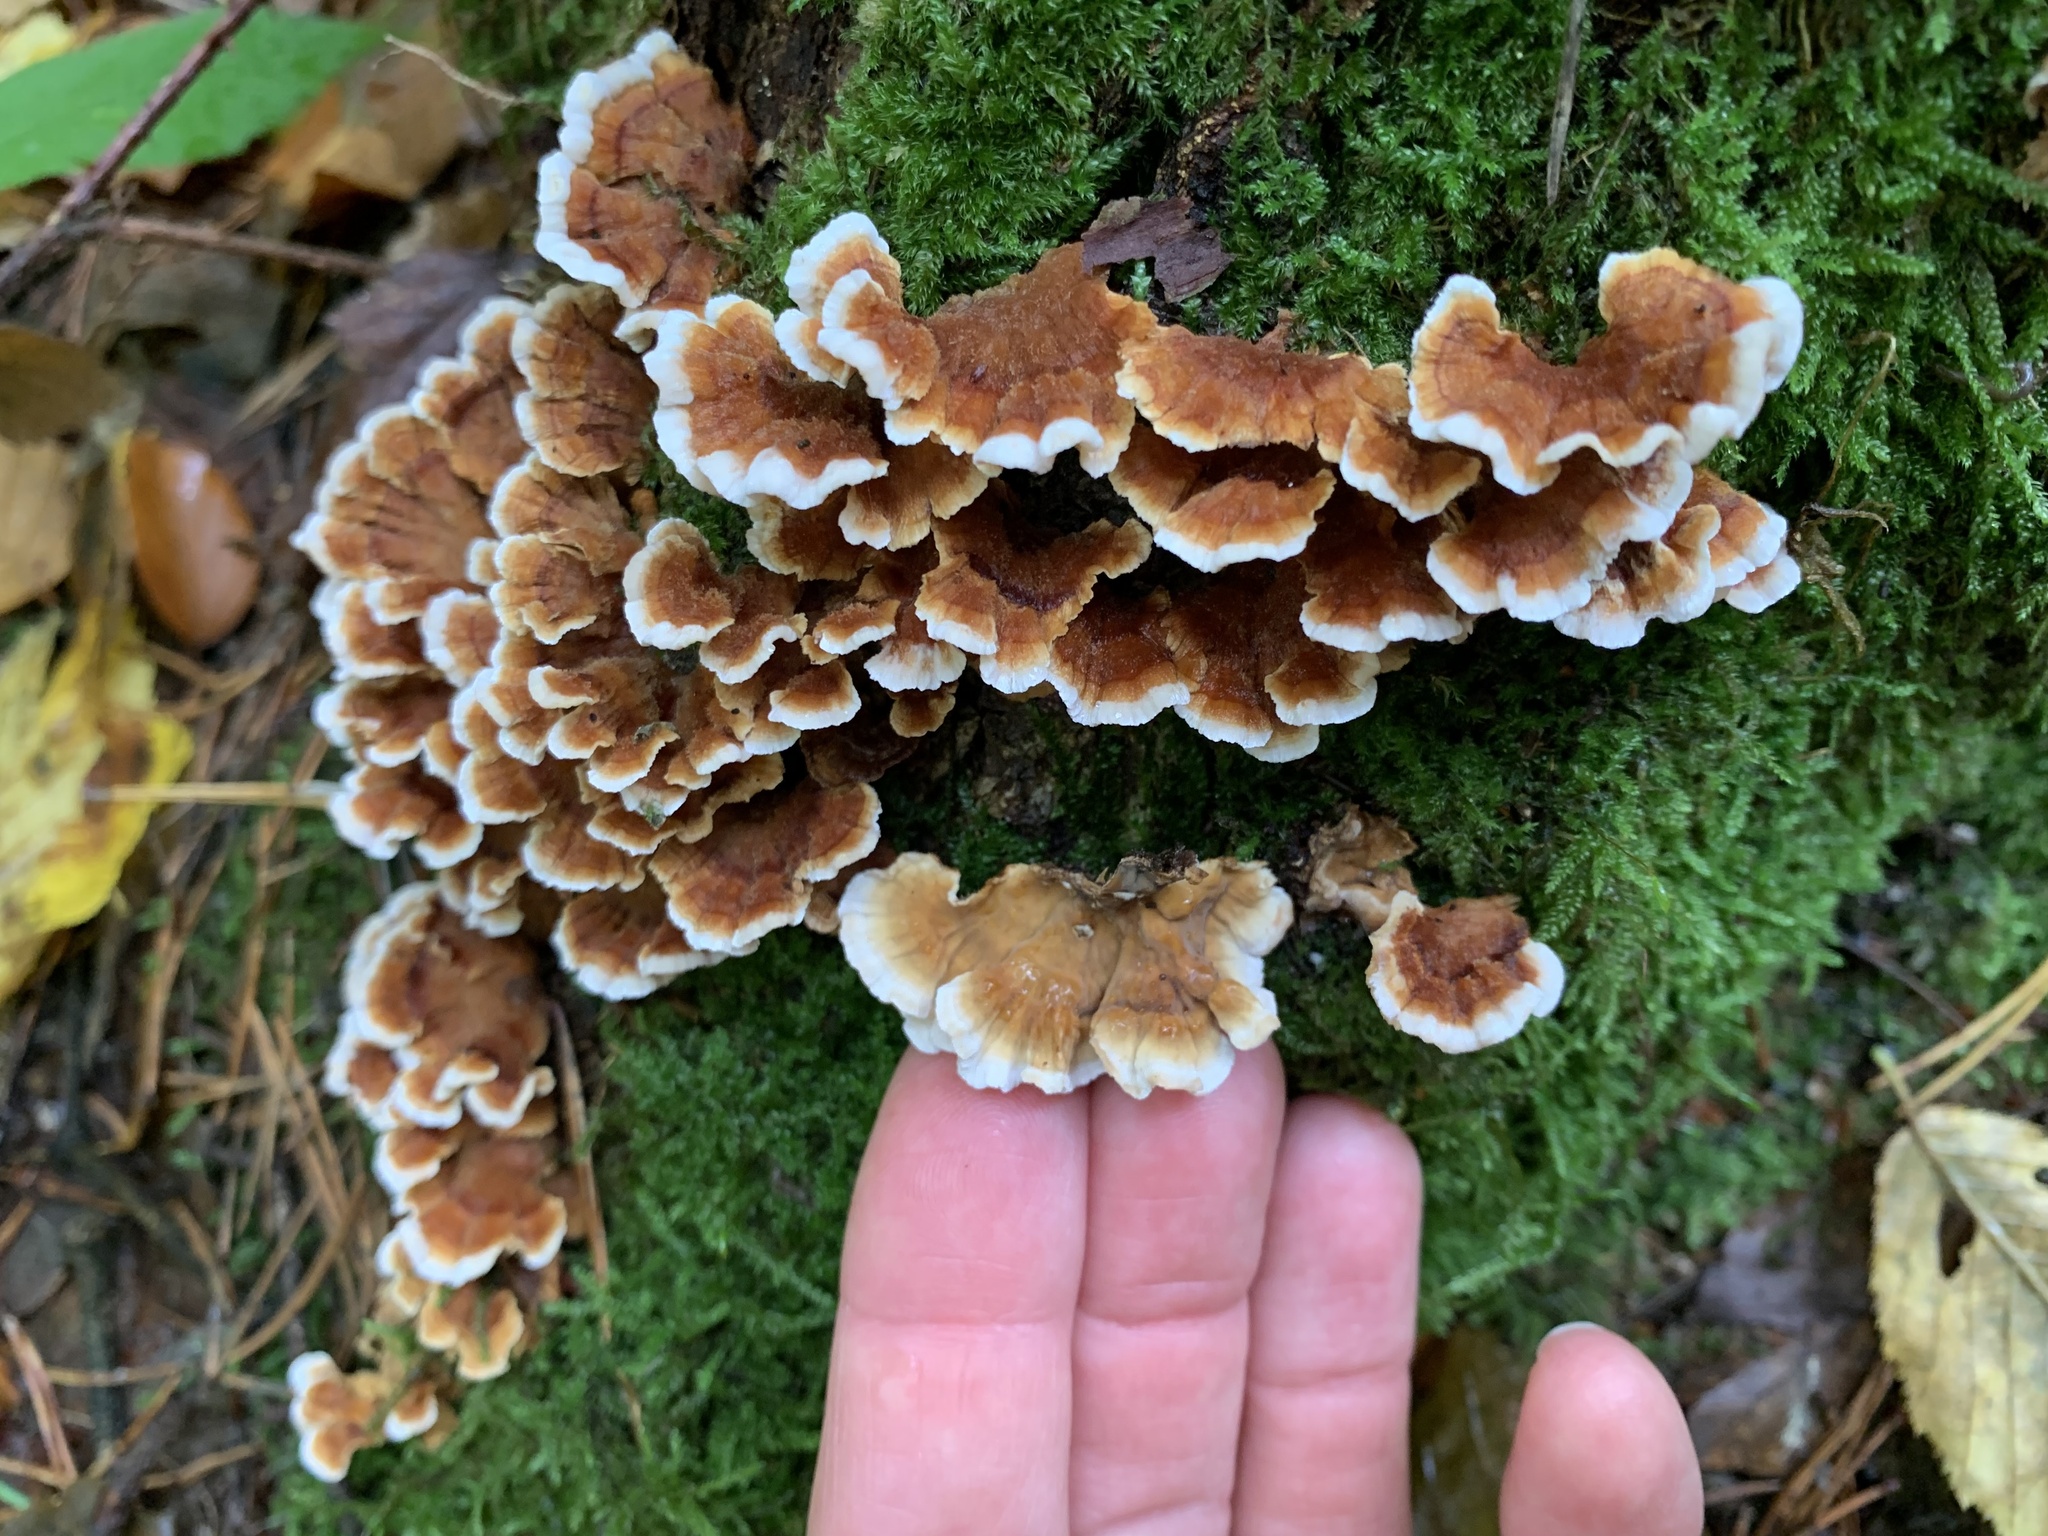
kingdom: Fungi
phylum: Basidiomycota
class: Agaricomycetes
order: Russulales
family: Stereaceae
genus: Stereum
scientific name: Stereum gausapatum
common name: Bleeding oak crust
